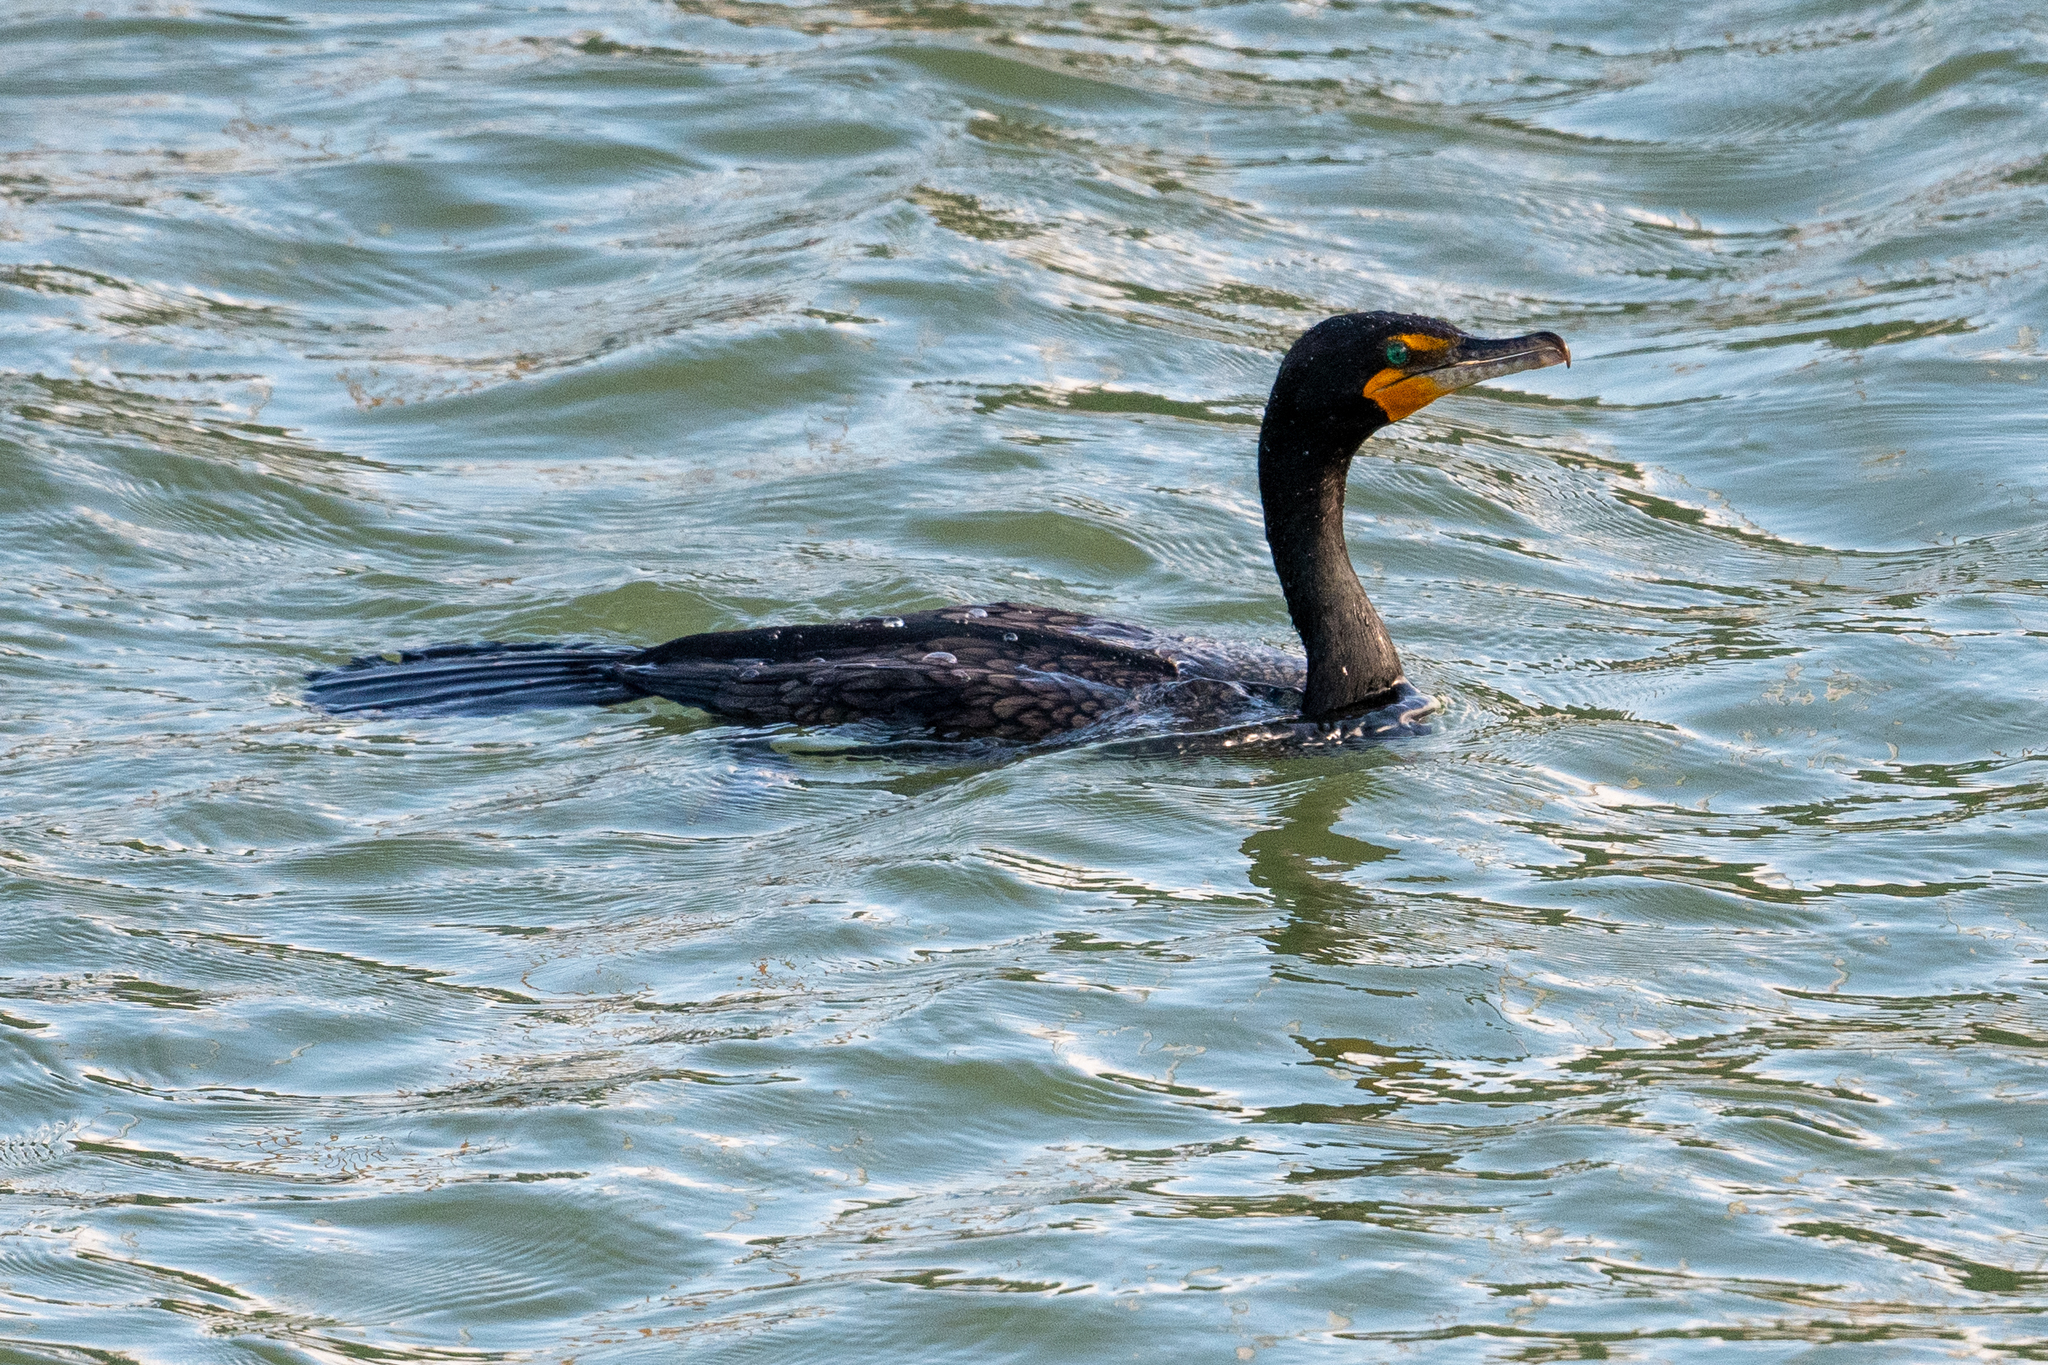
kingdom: Animalia
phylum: Chordata
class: Aves
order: Suliformes
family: Phalacrocoracidae
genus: Phalacrocorax
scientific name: Phalacrocorax auritus
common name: Double-crested cormorant
